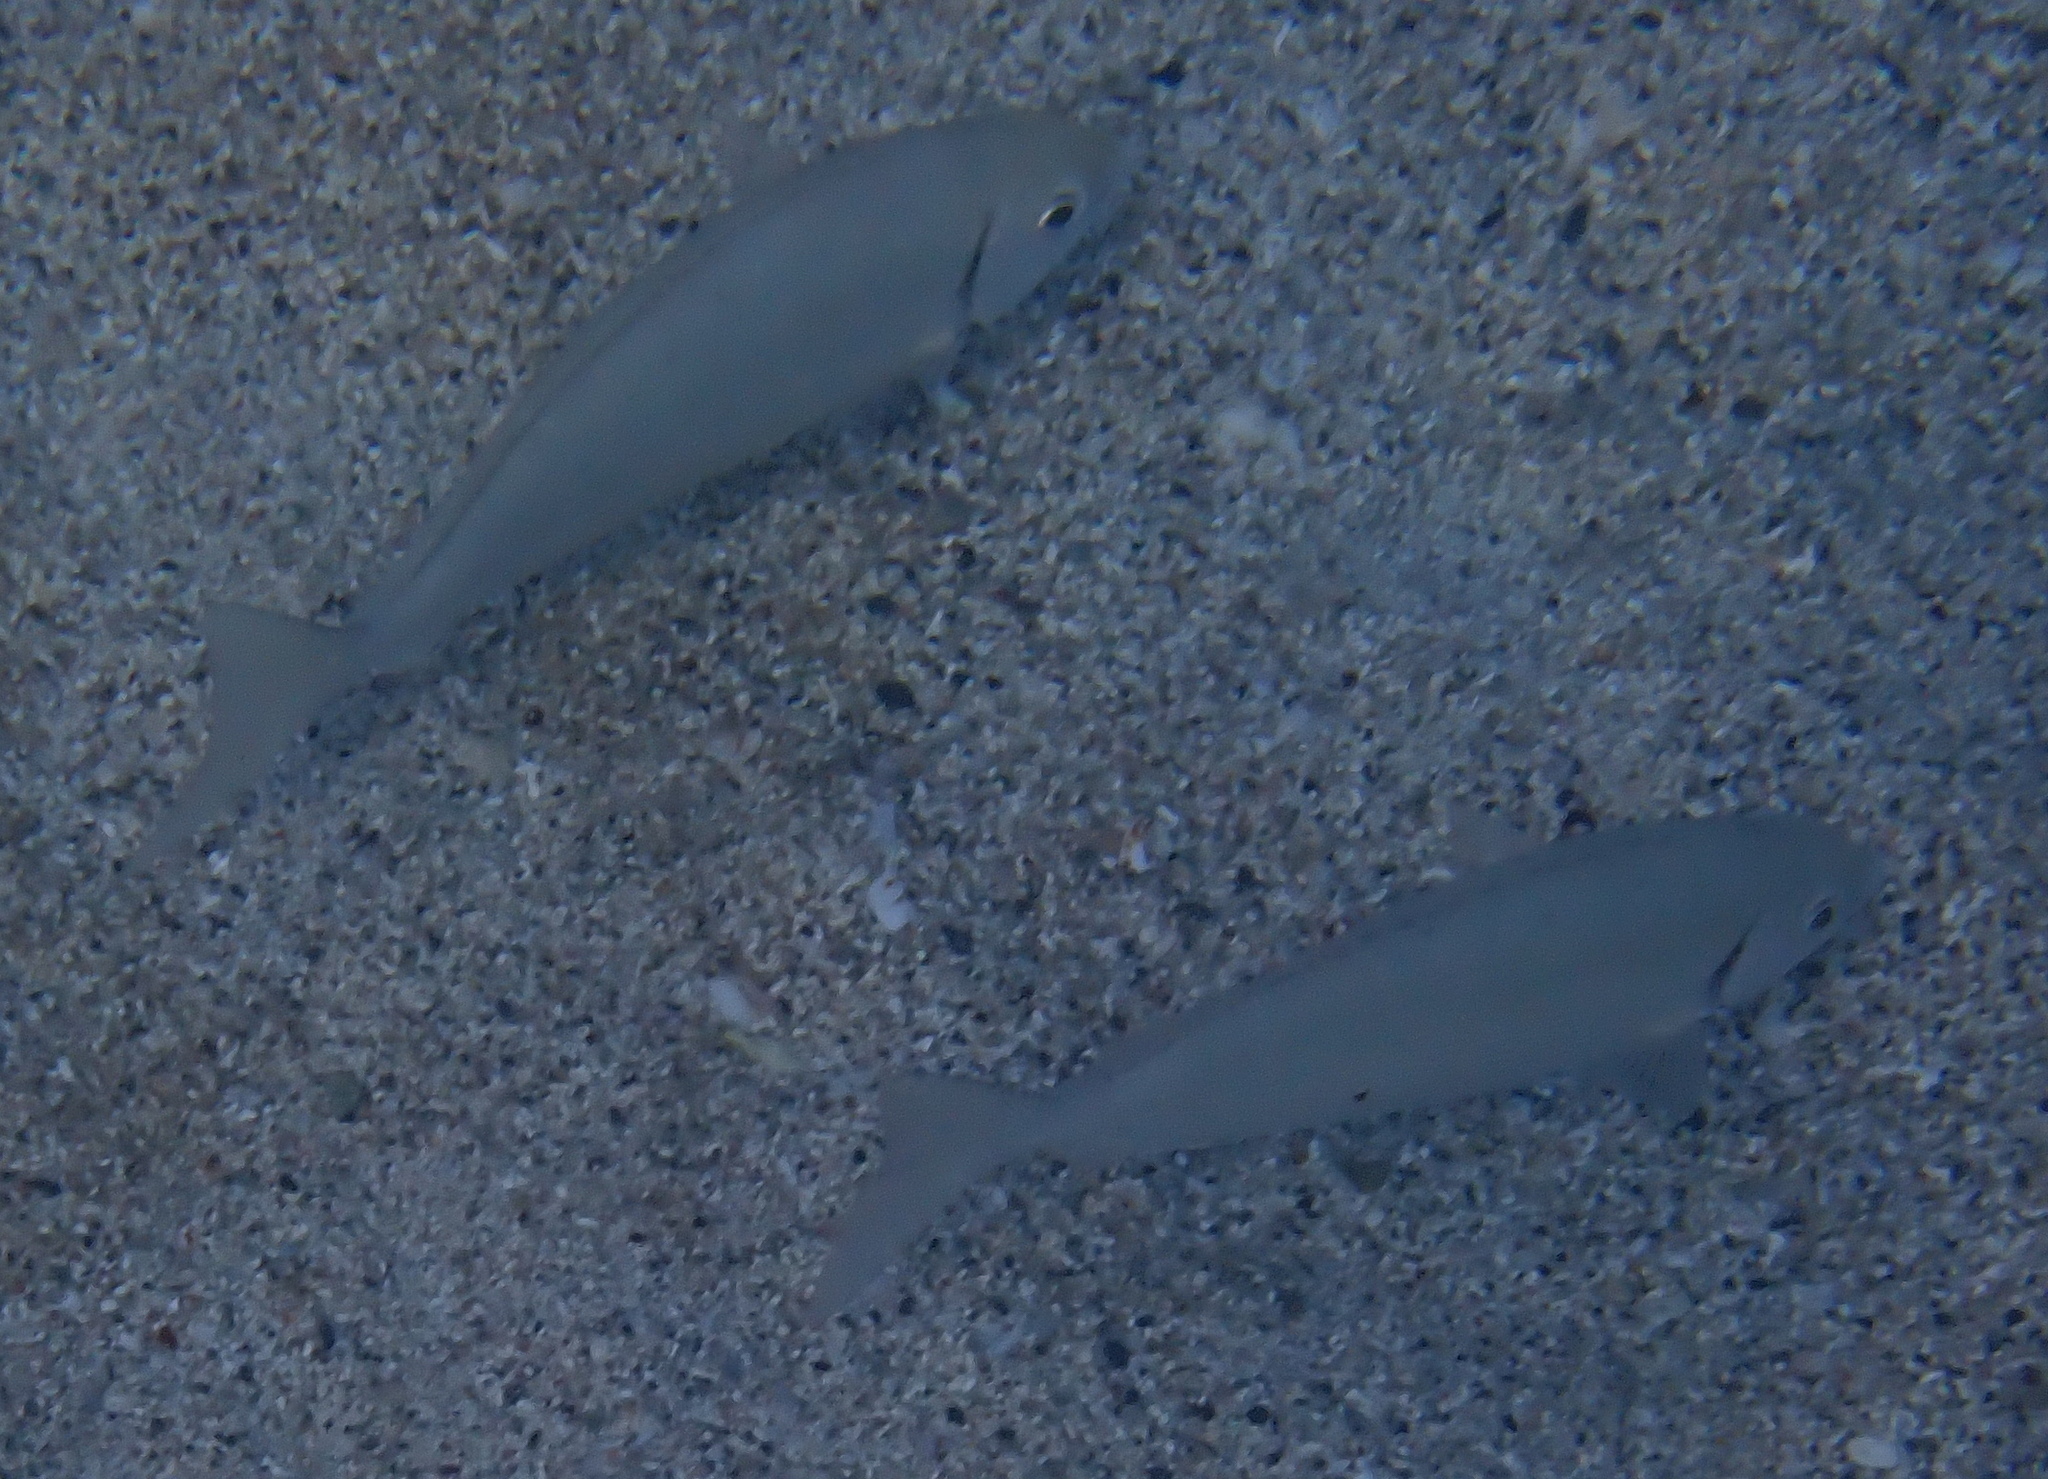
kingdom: Animalia
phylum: Chordata
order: Perciformes
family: Siganidae
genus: Siganus
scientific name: Siganus rivulatus
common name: Marbled spinefoot
